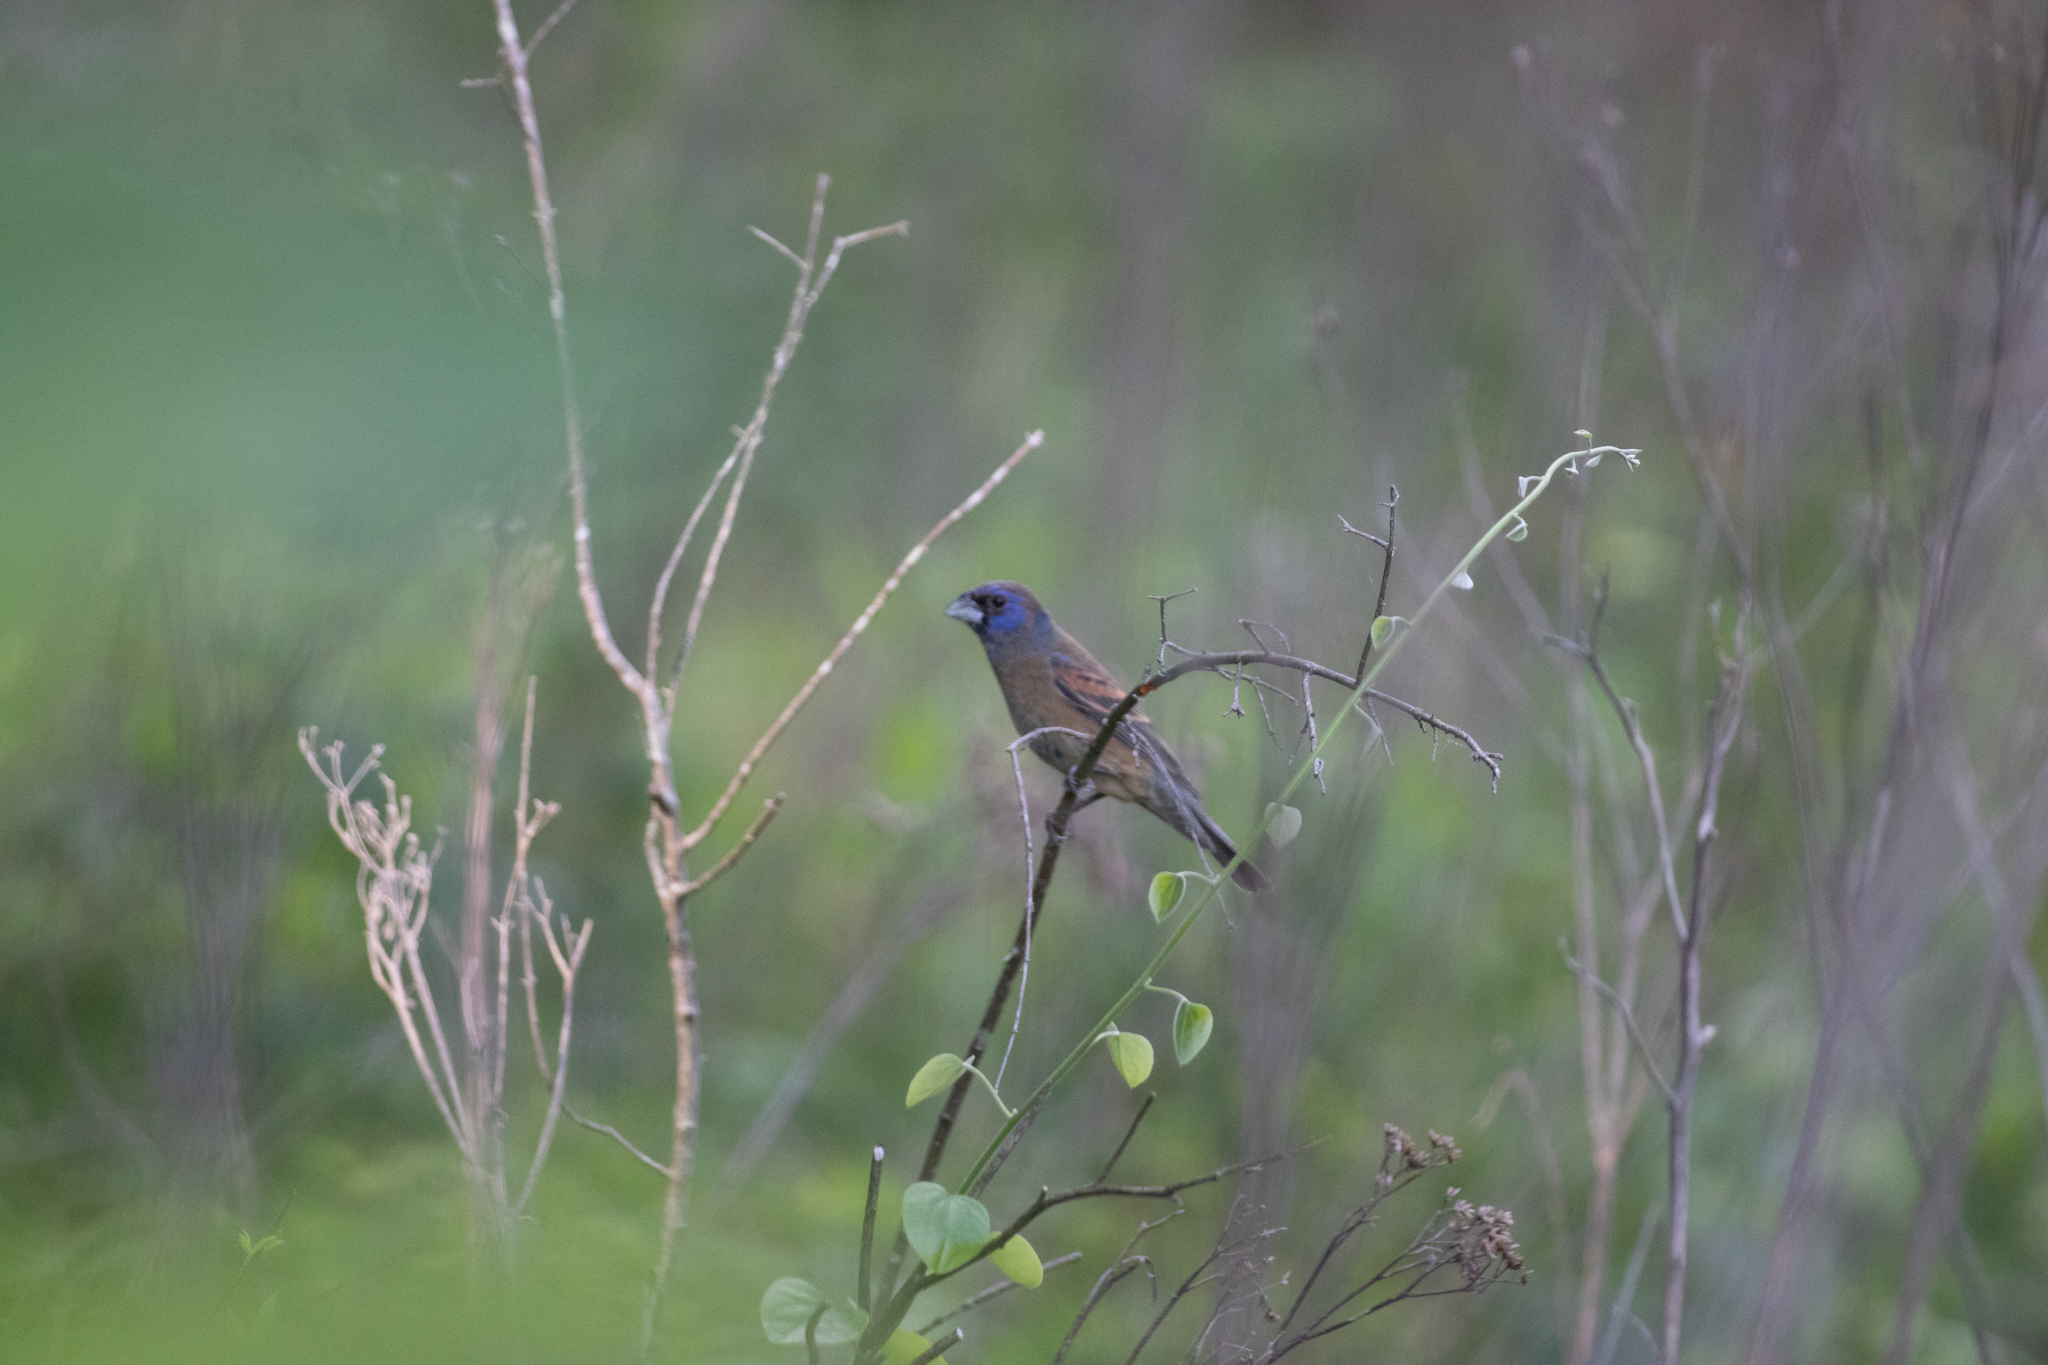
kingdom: Animalia
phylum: Chordata
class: Aves
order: Passeriformes
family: Cardinalidae
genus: Passerina
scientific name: Passerina caerulea
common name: Blue grosbeak
